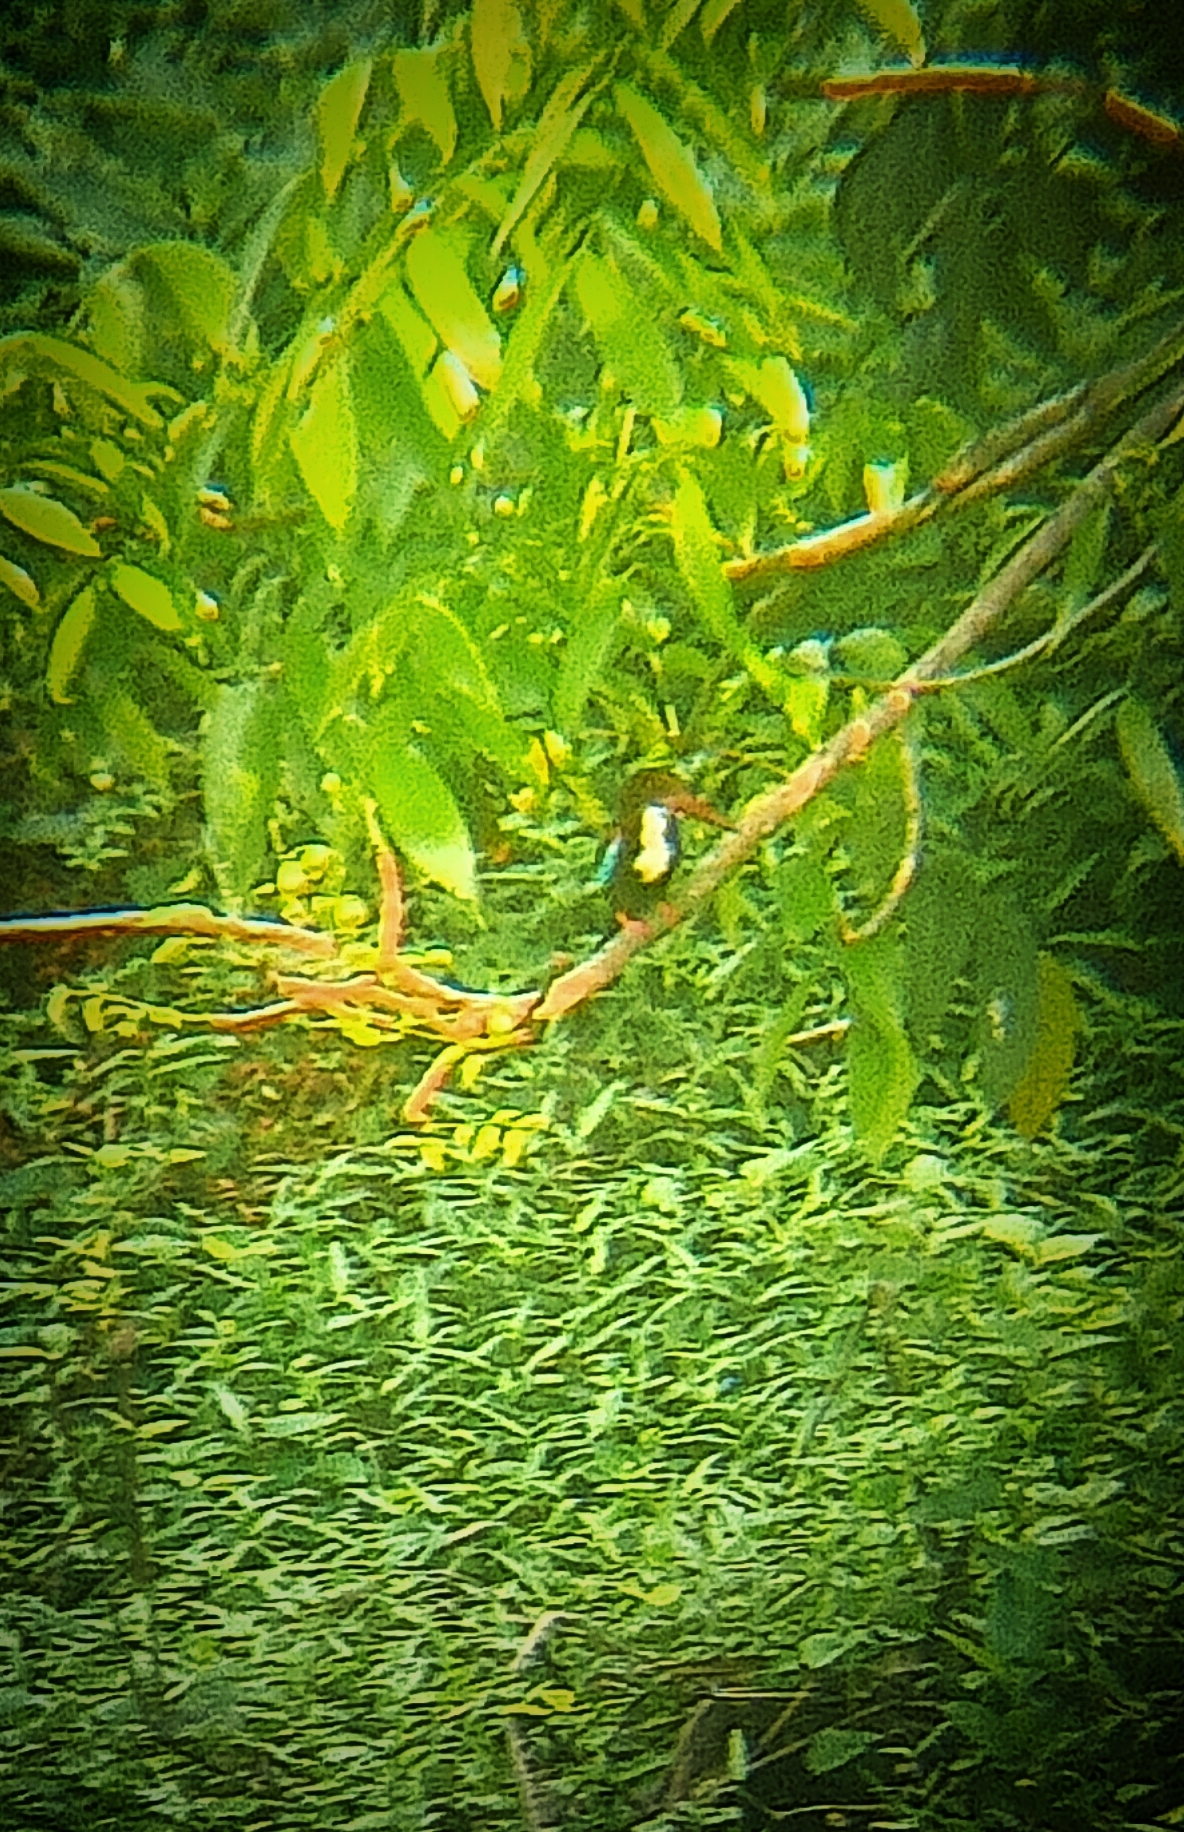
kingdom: Animalia
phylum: Chordata
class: Aves
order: Coraciiformes
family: Alcedinidae
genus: Halcyon
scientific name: Halcyon smyrnensis
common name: White-throated kingfisher
